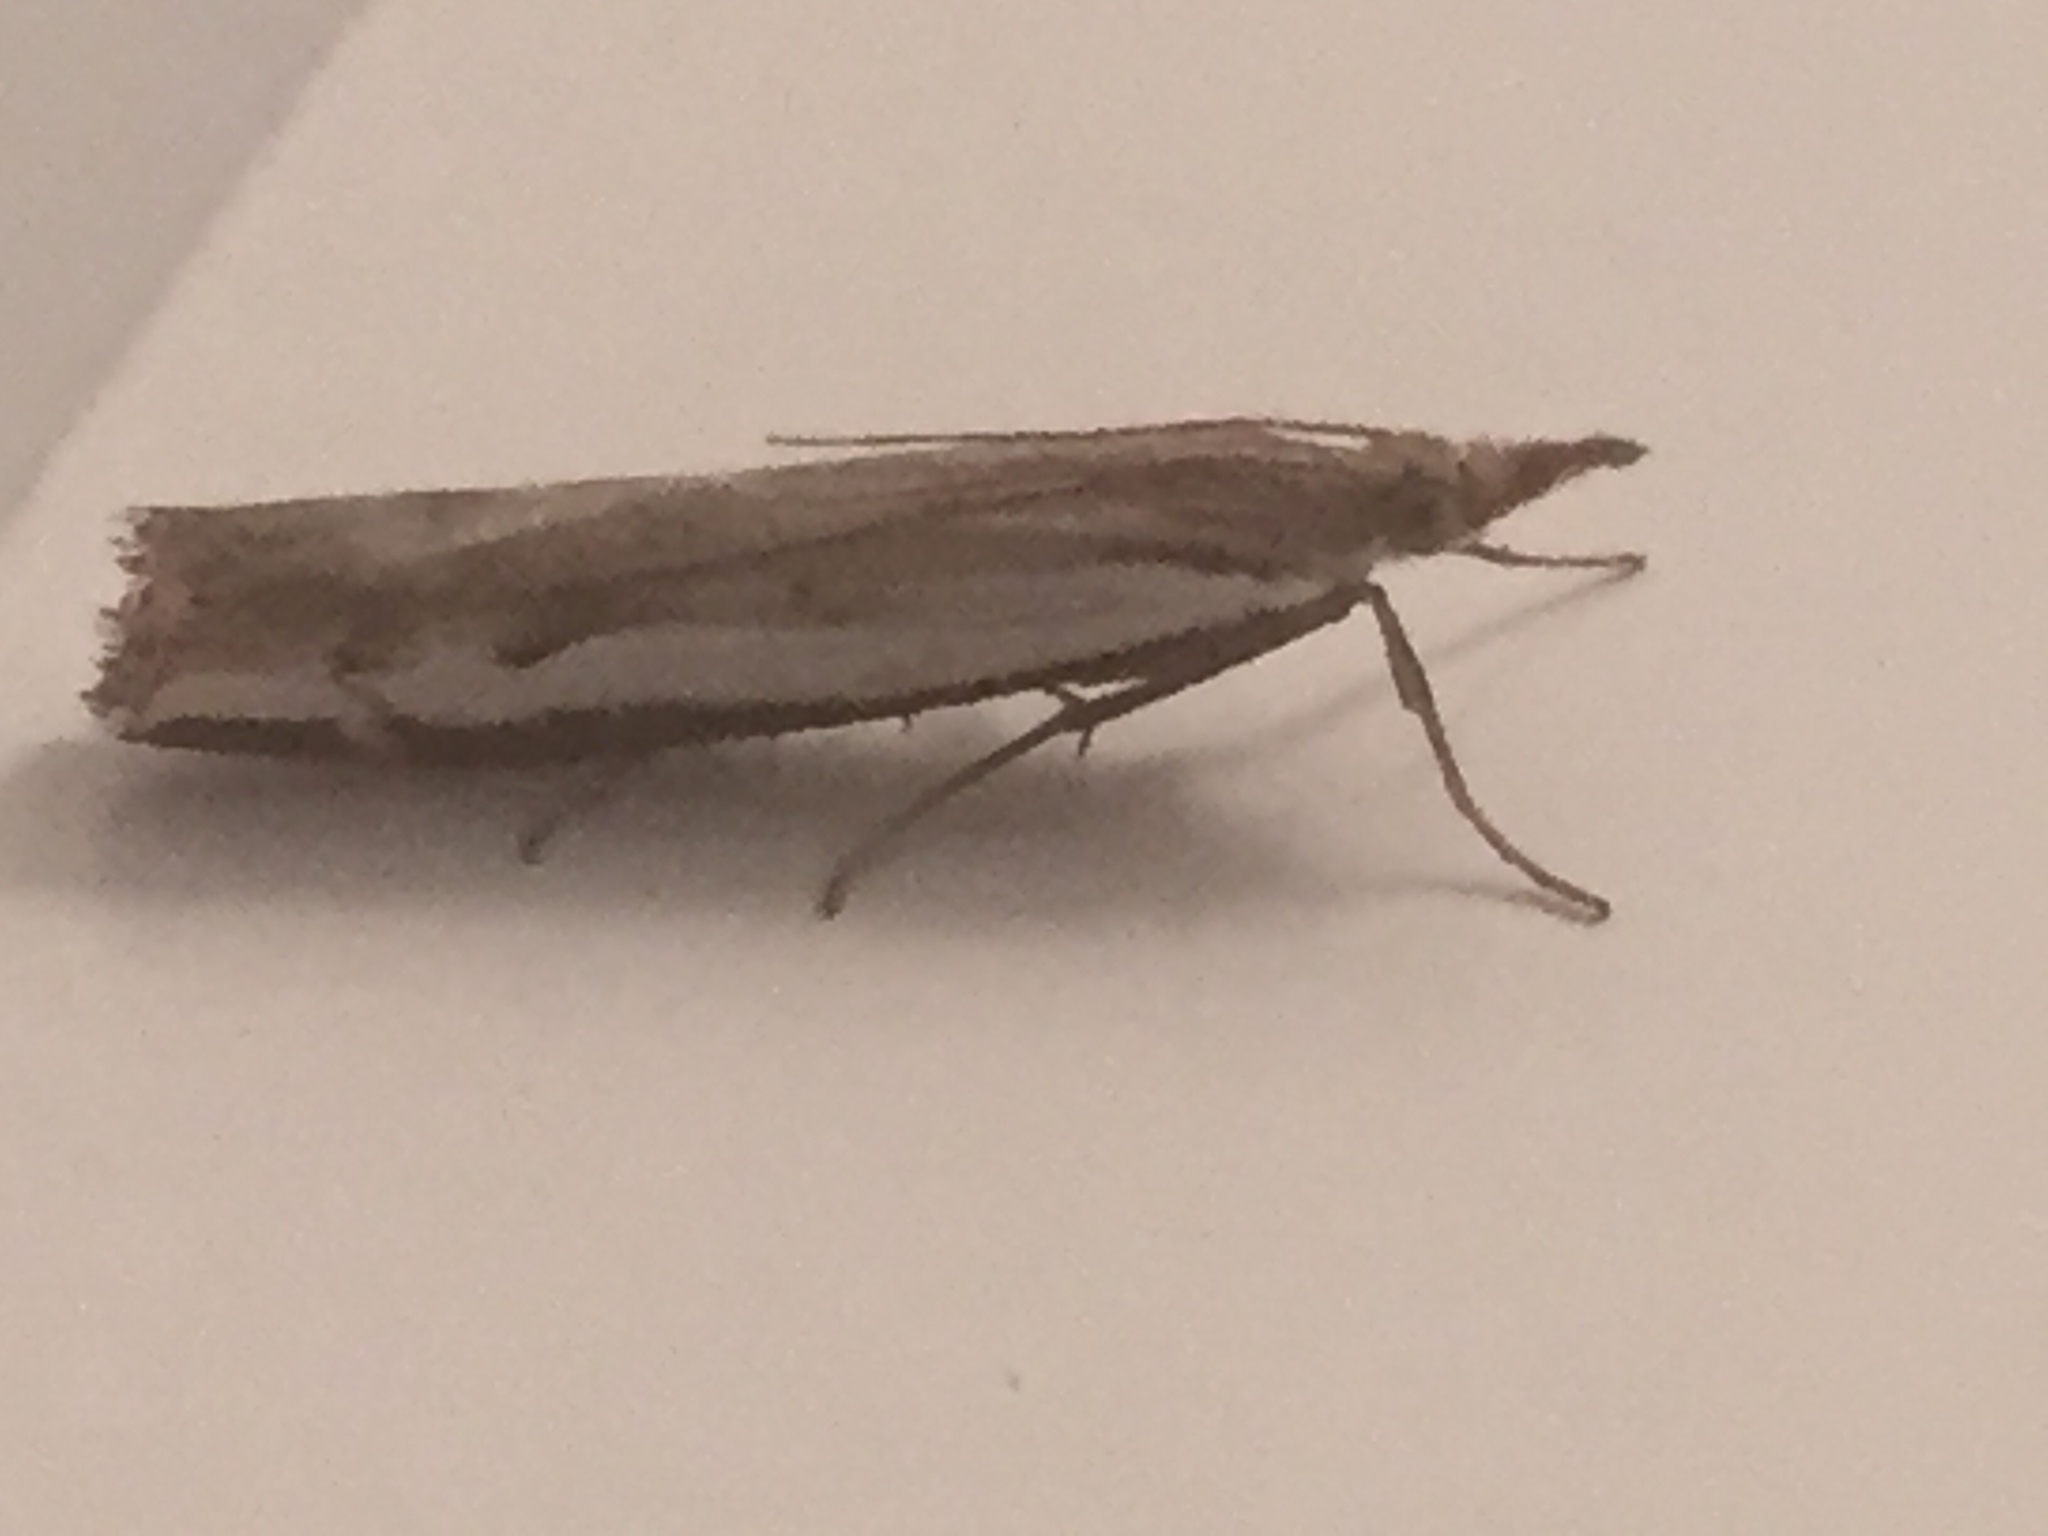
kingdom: Animalia
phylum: Arthropoda
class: Insecta
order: Lepidoptera
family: Crambidae
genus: Orocrambus
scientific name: Orocrambus flexuosellus
